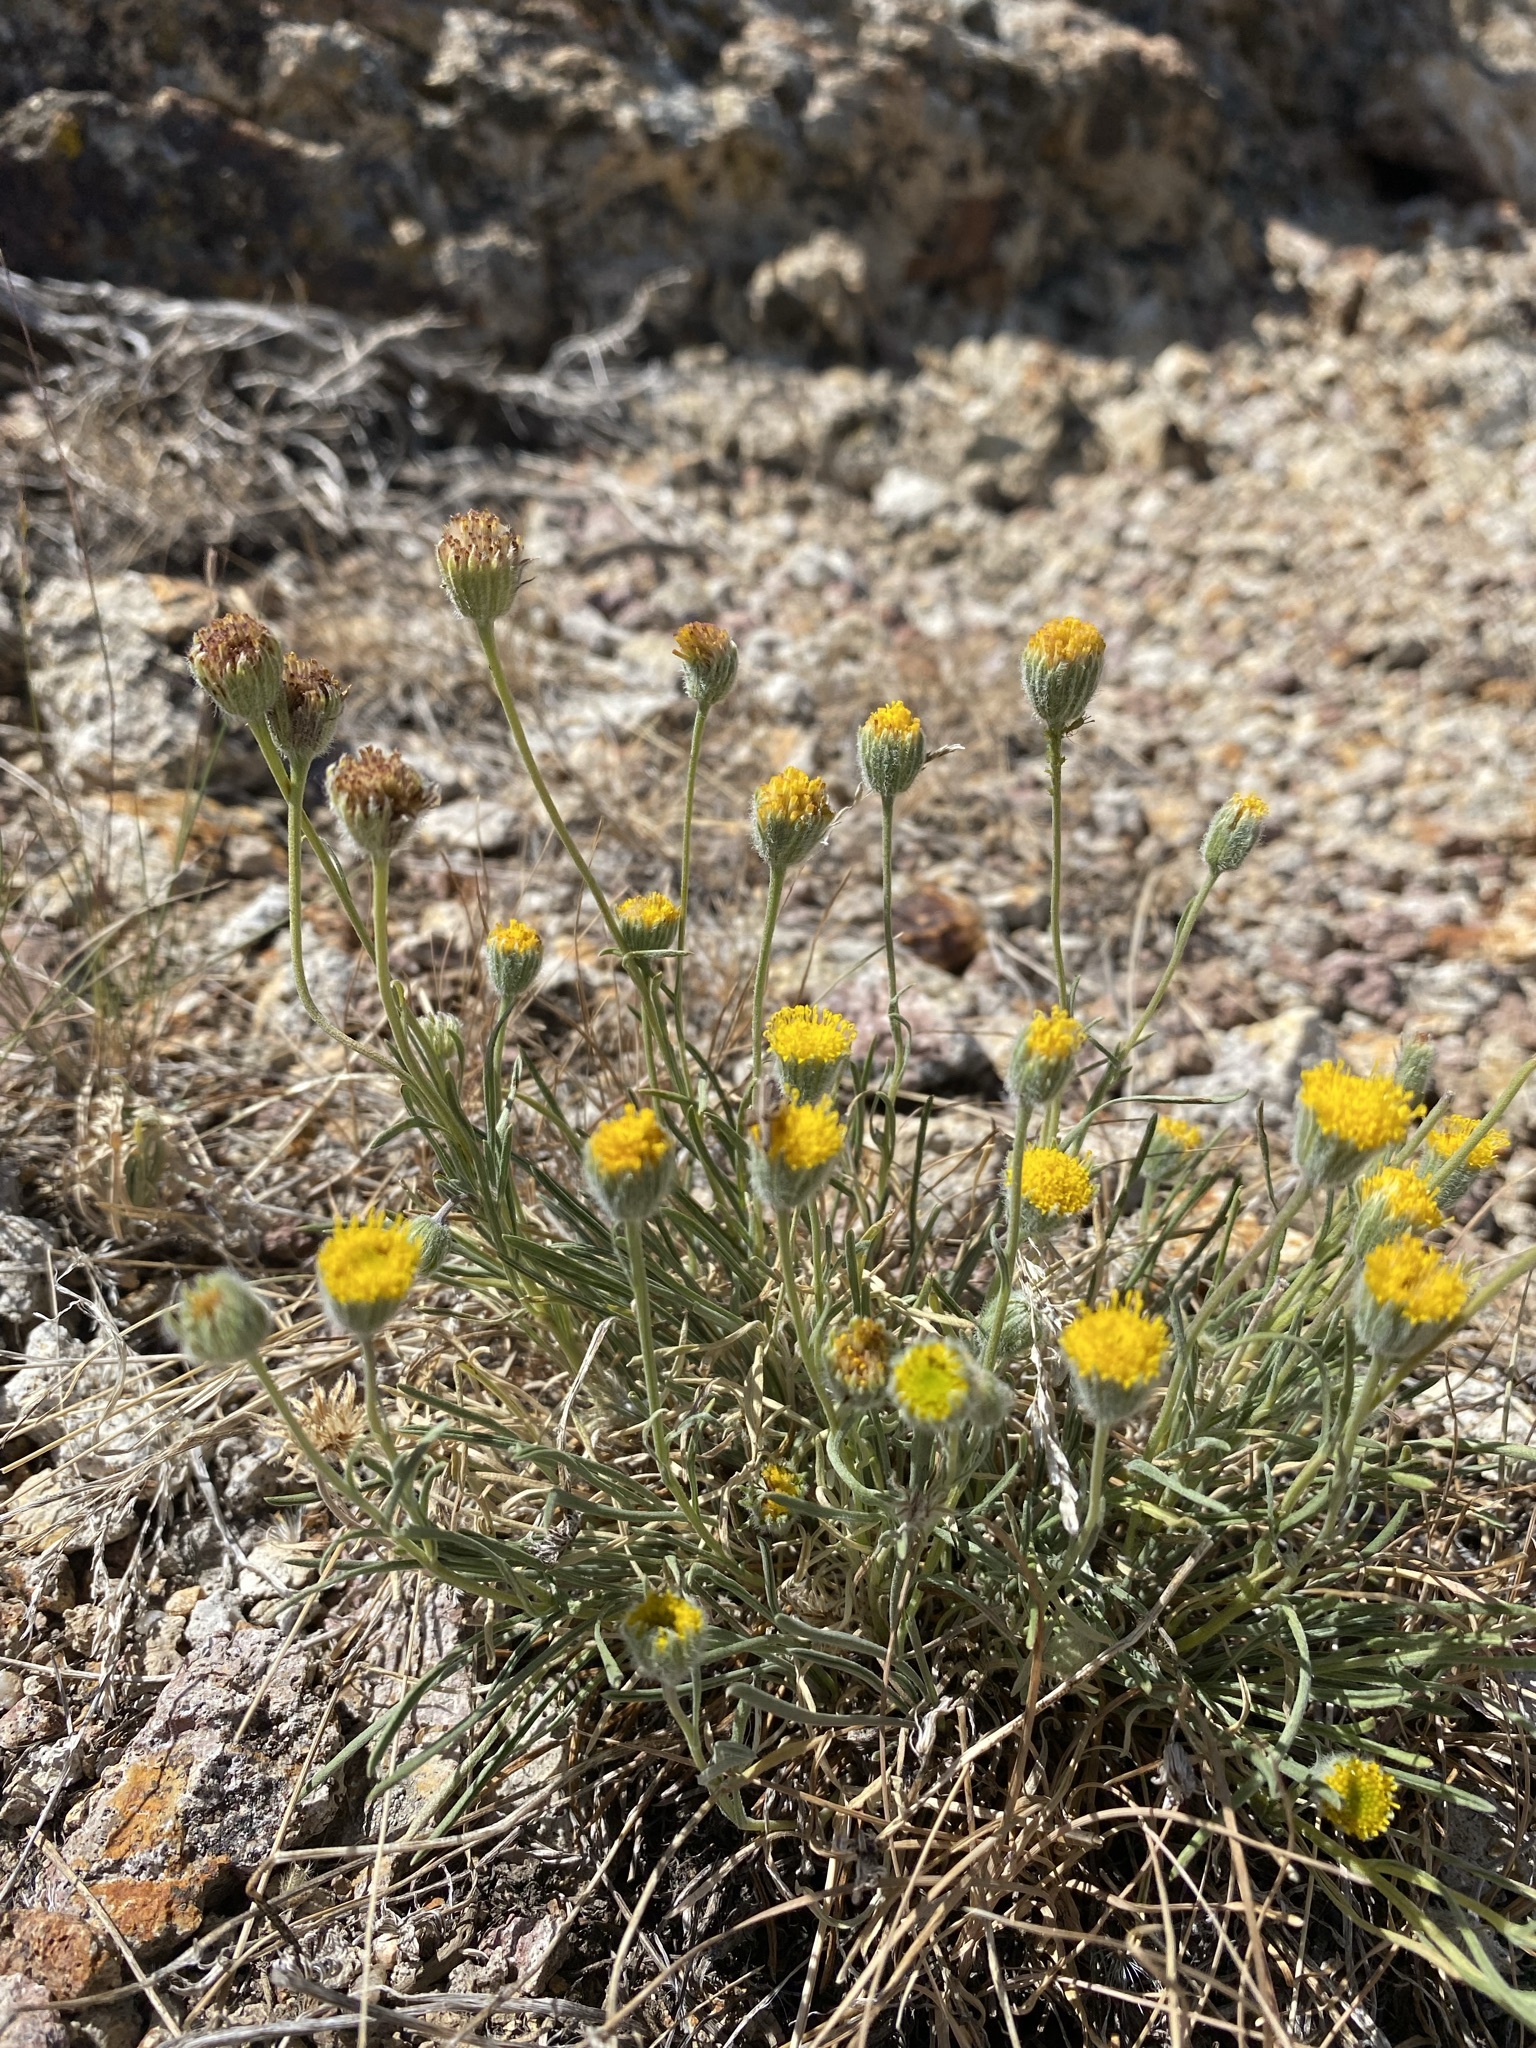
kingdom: Plantae
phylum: Tracheophyta
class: Magnoliopsida
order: Asterales
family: Asteraceae
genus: Erigeron
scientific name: Erigeron bloomeri
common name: Bloomer's fleabane
